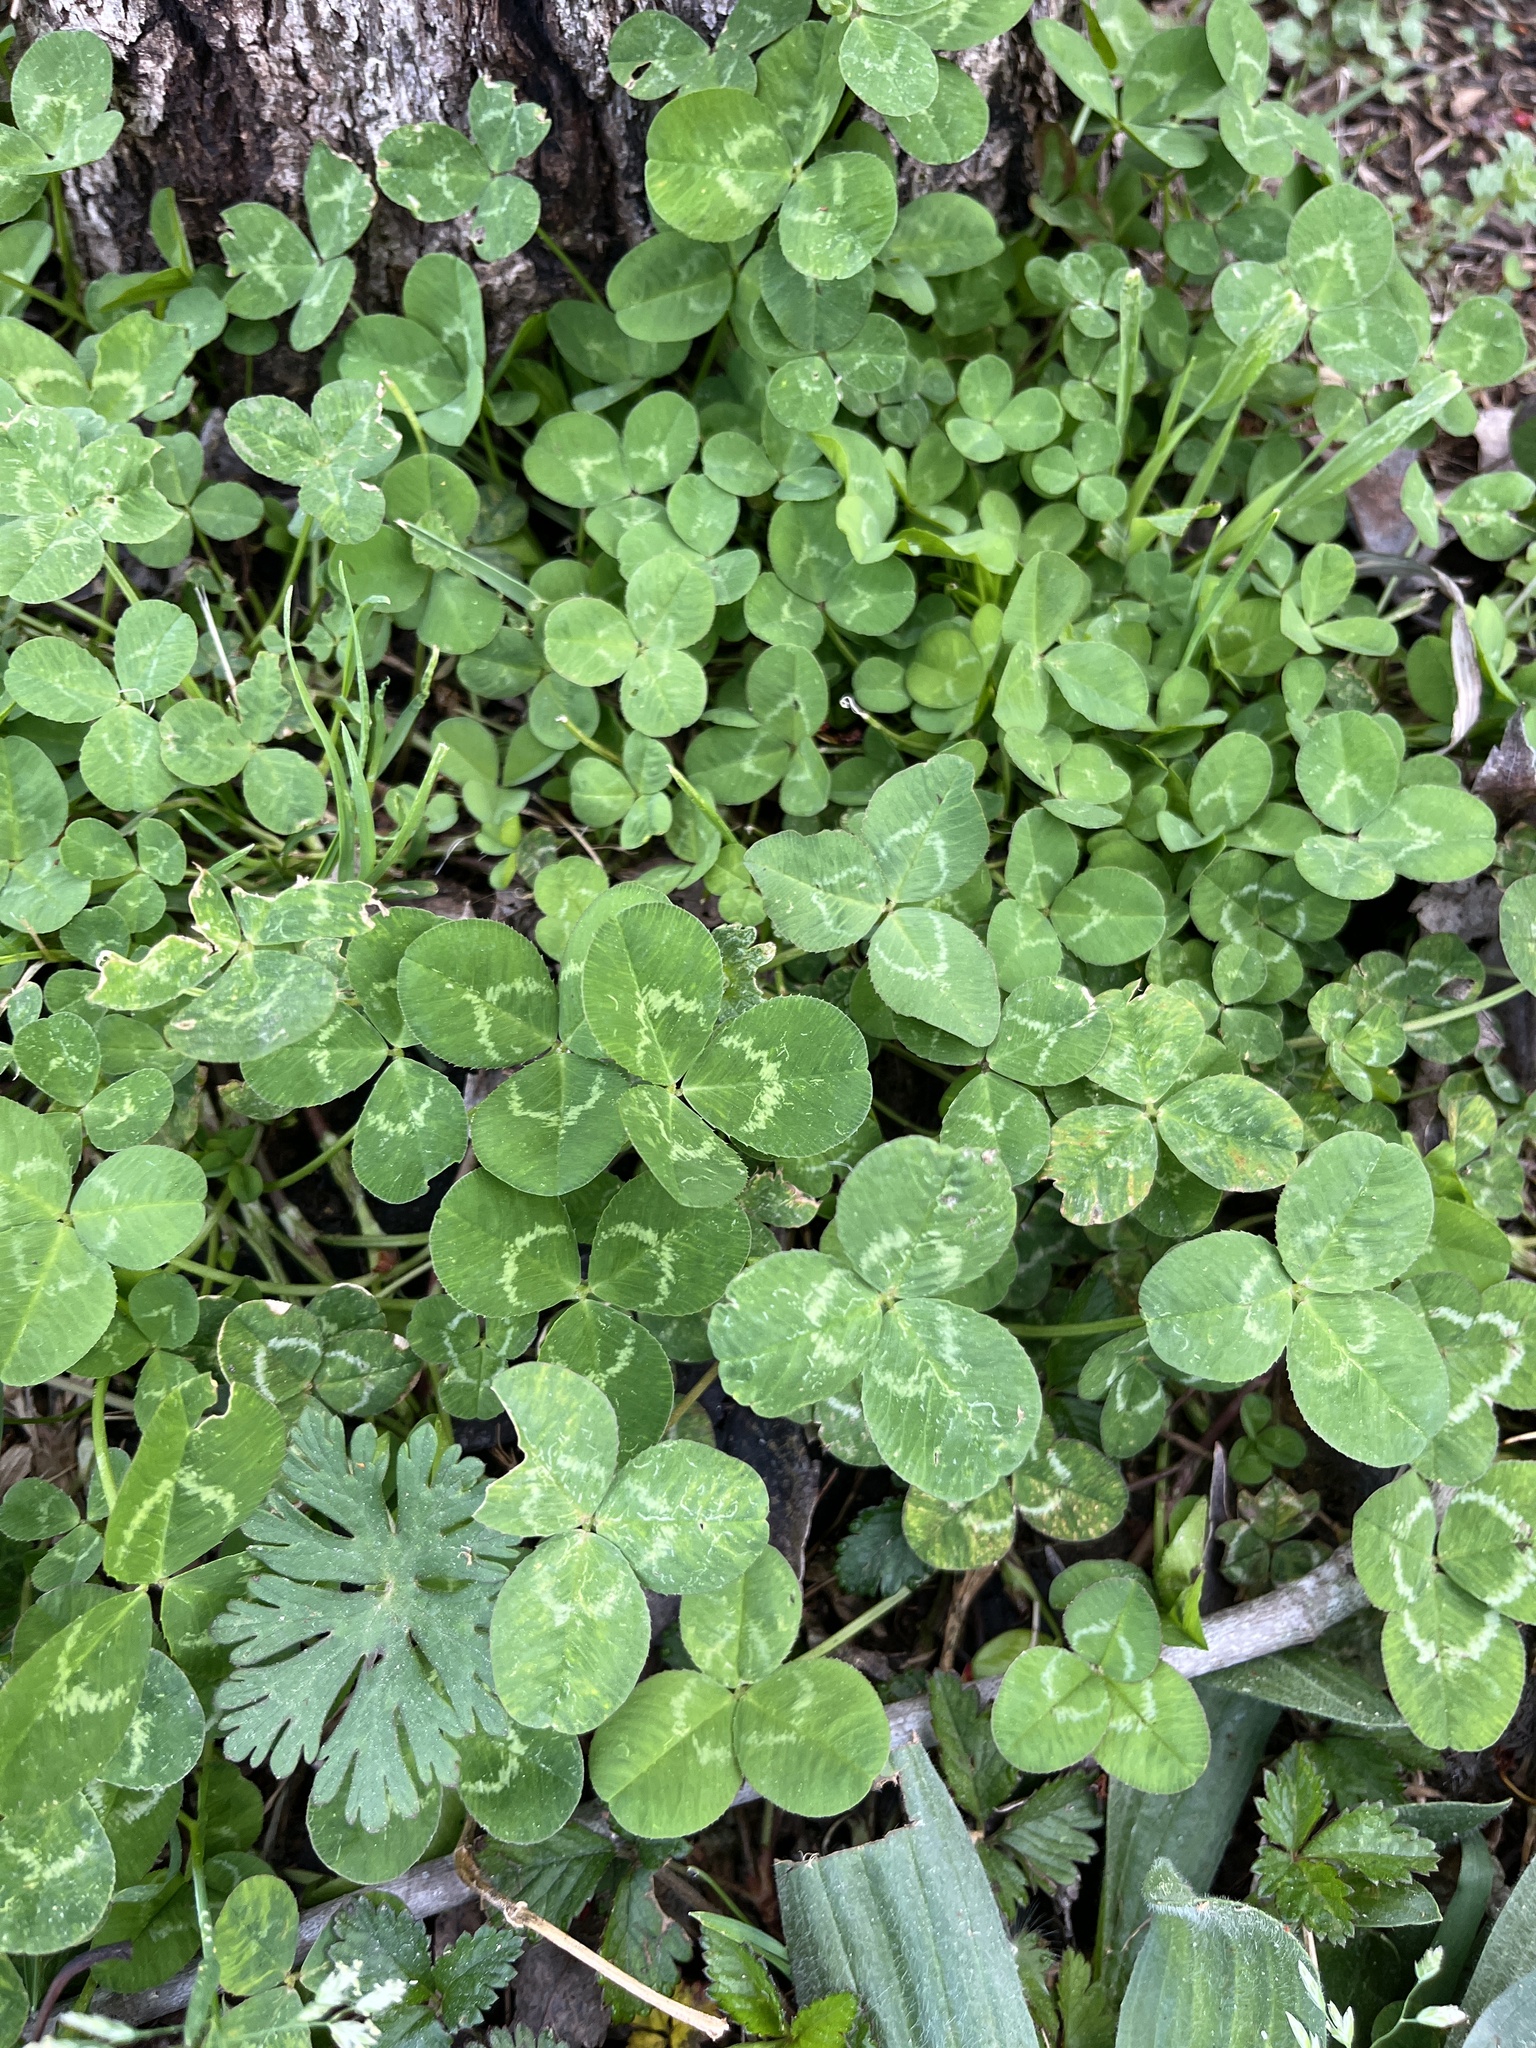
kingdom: Plantae
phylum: Tracheophyta
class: Magnoliopsida
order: Fabales
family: Fabaceae
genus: Trifolium
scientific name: Trifolium repens
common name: White clover
